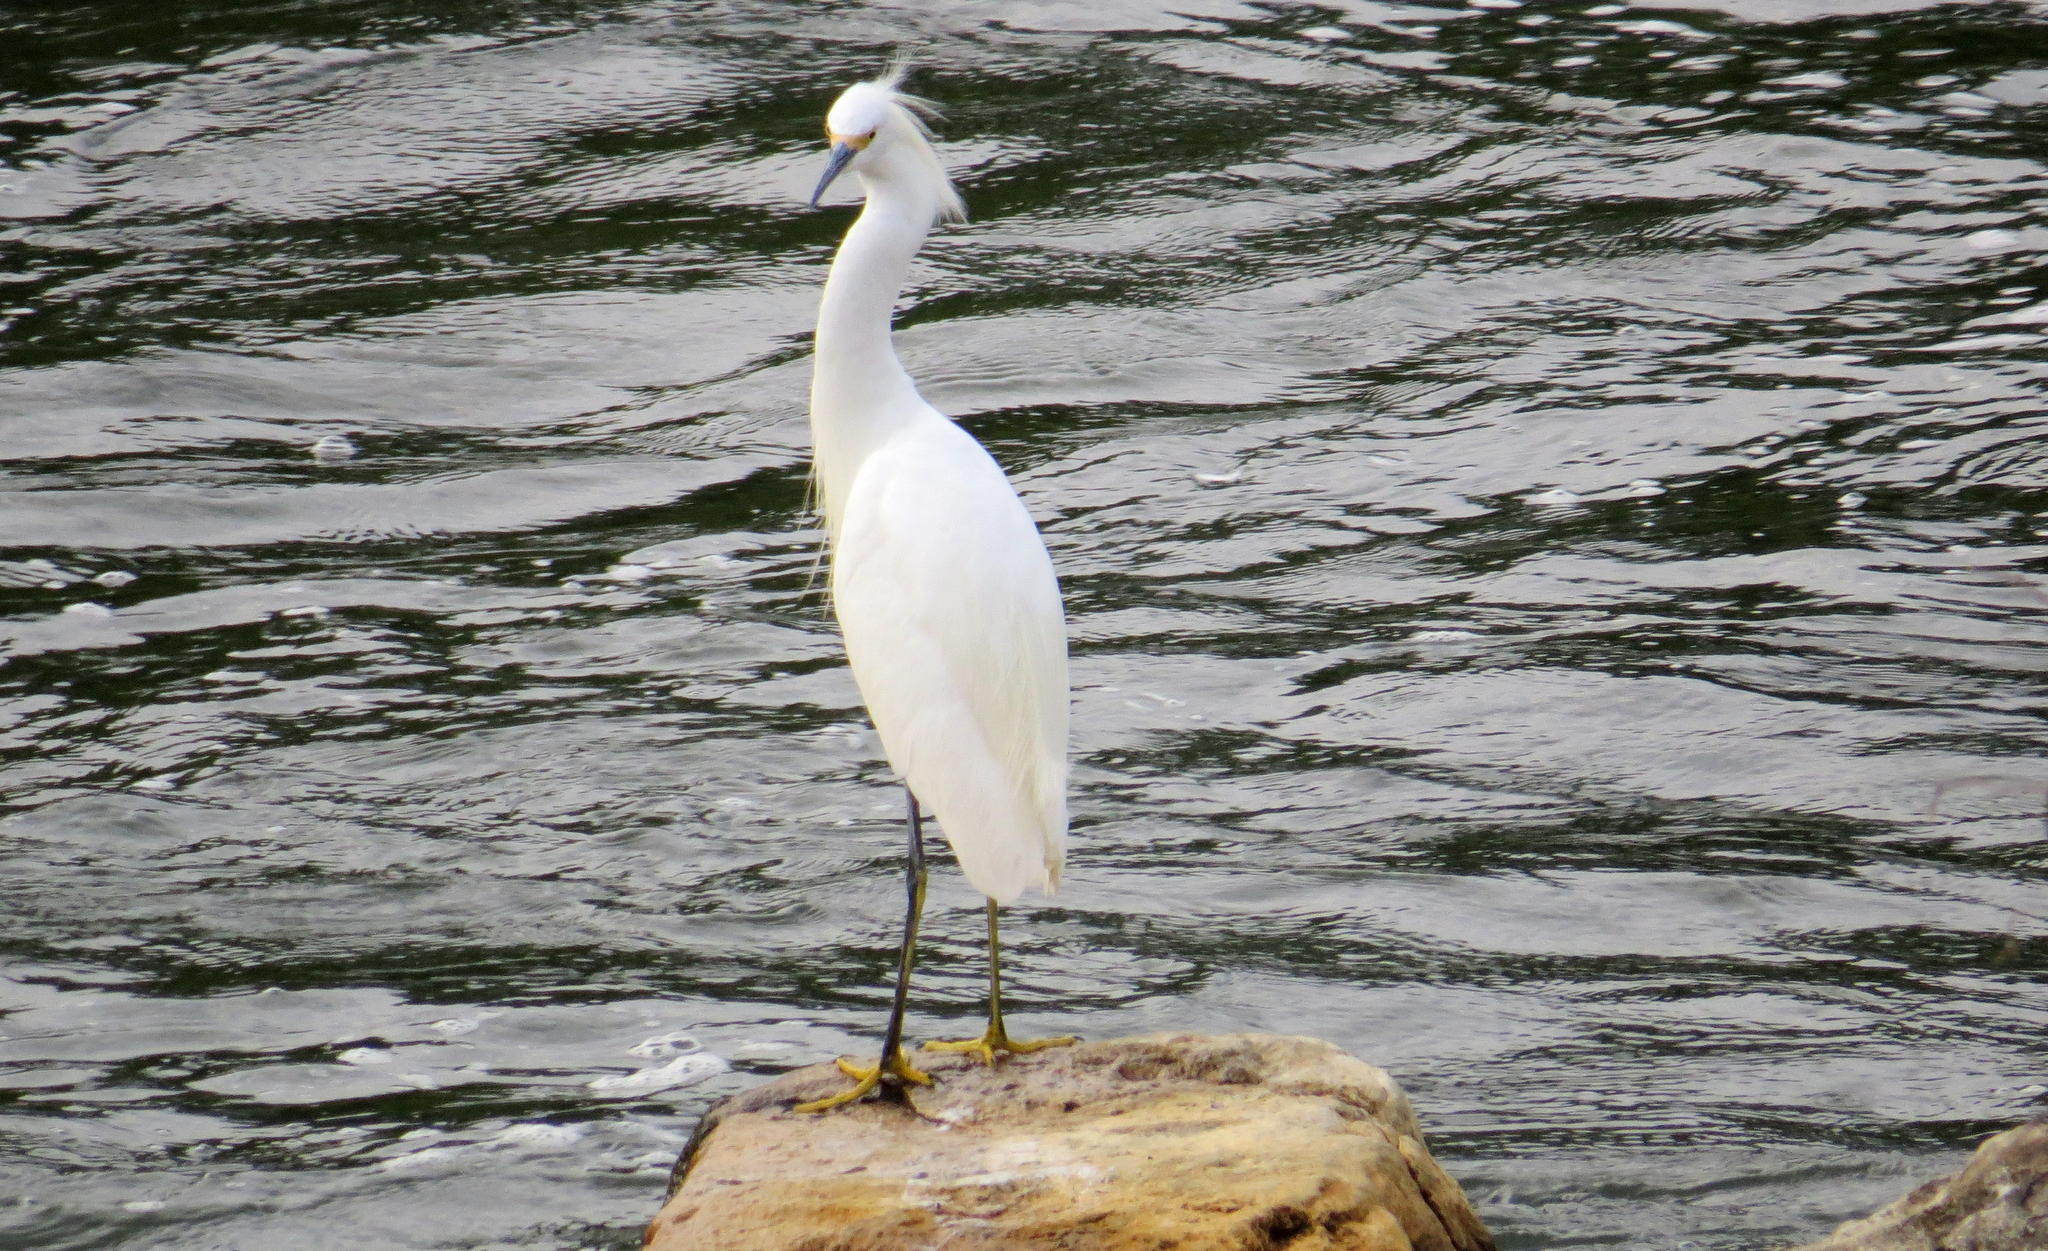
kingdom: Animalia
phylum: Chordata
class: Aves
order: Pelecaniformes
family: Ardeidae
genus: Egretta
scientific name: Egretta thula
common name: Snowy egret
